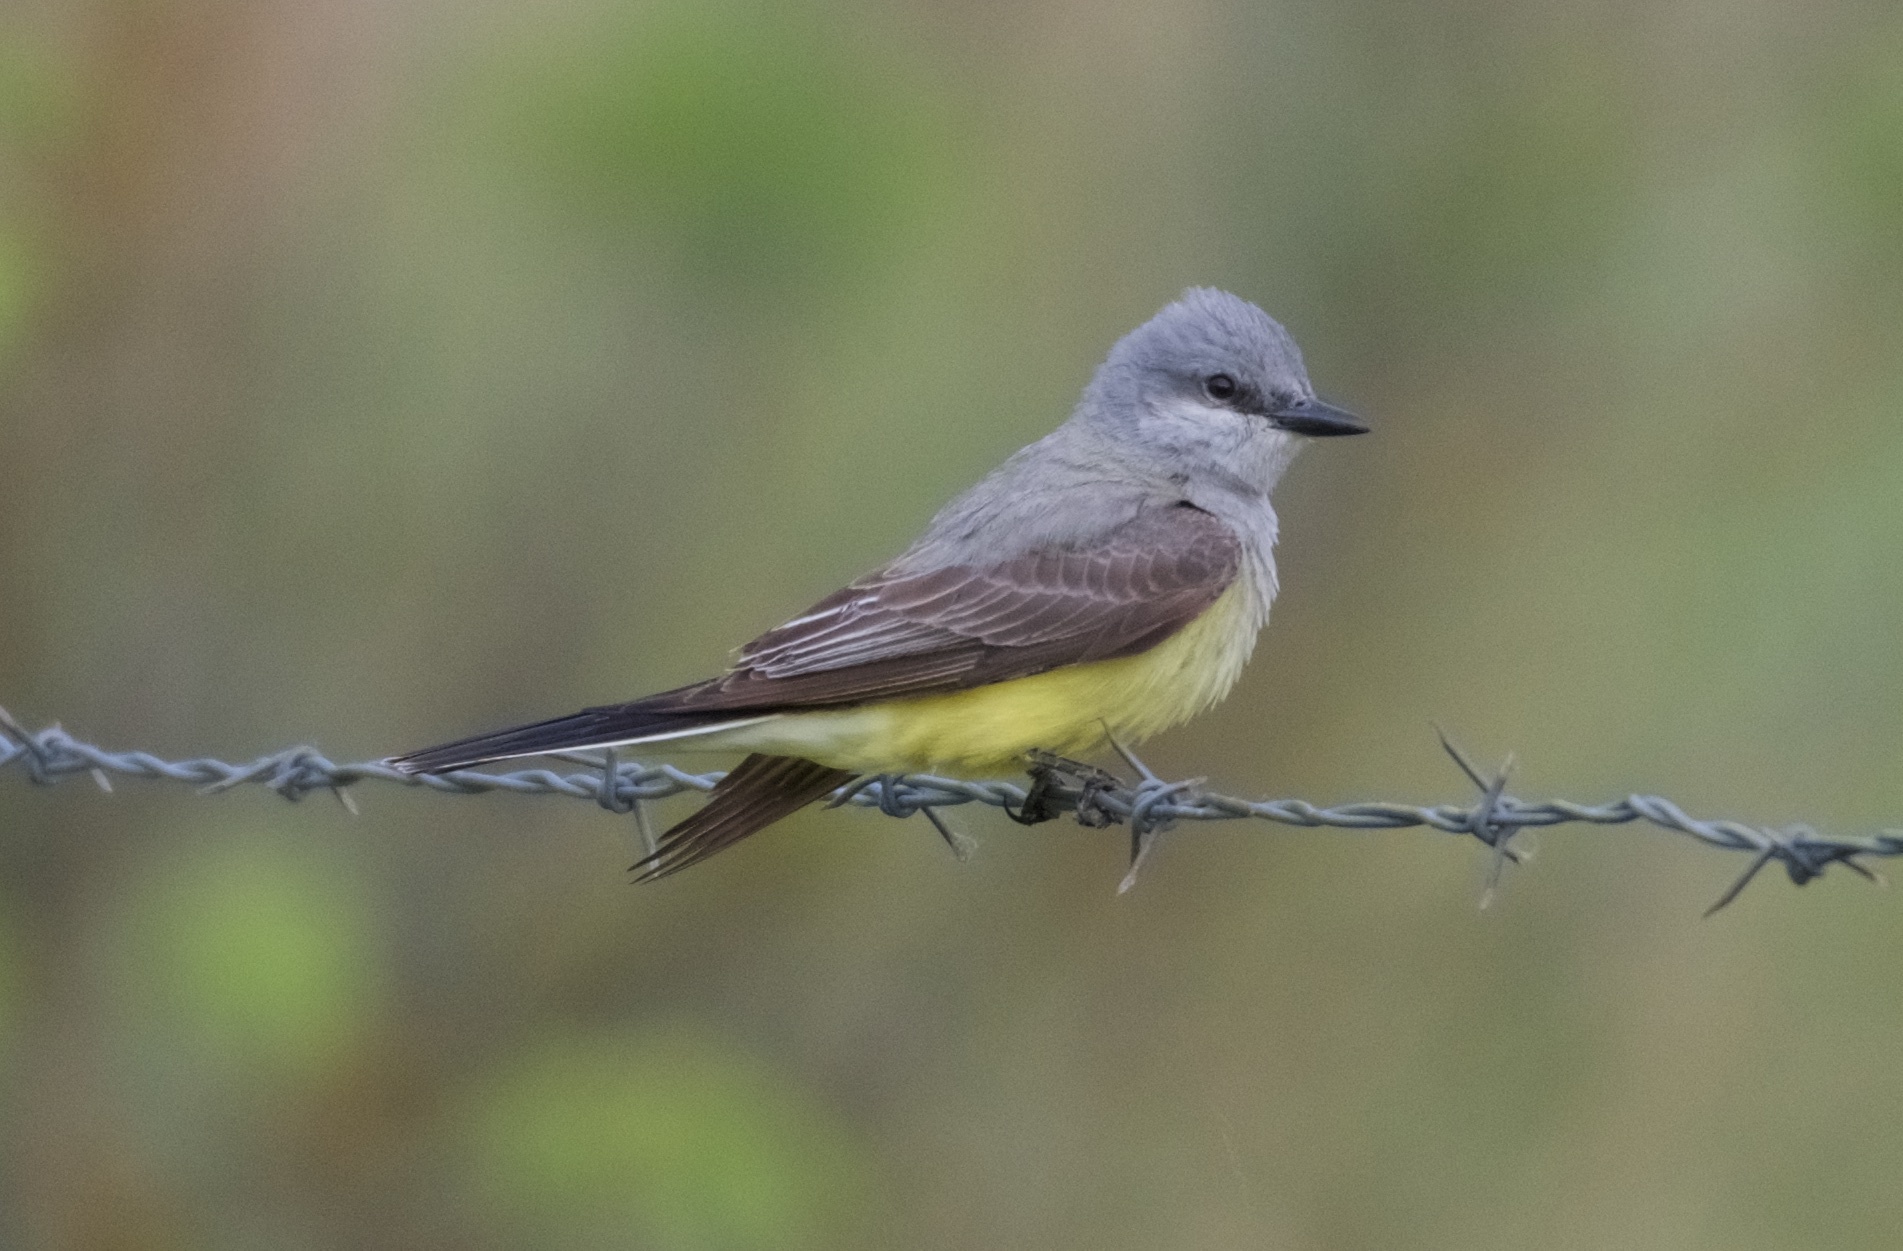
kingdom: Animalia
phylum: Chordata
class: Aves
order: Passeriformes
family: Tyrannidae
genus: Tyrannus
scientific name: Tyrannus verticalis
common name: Western kingbird
